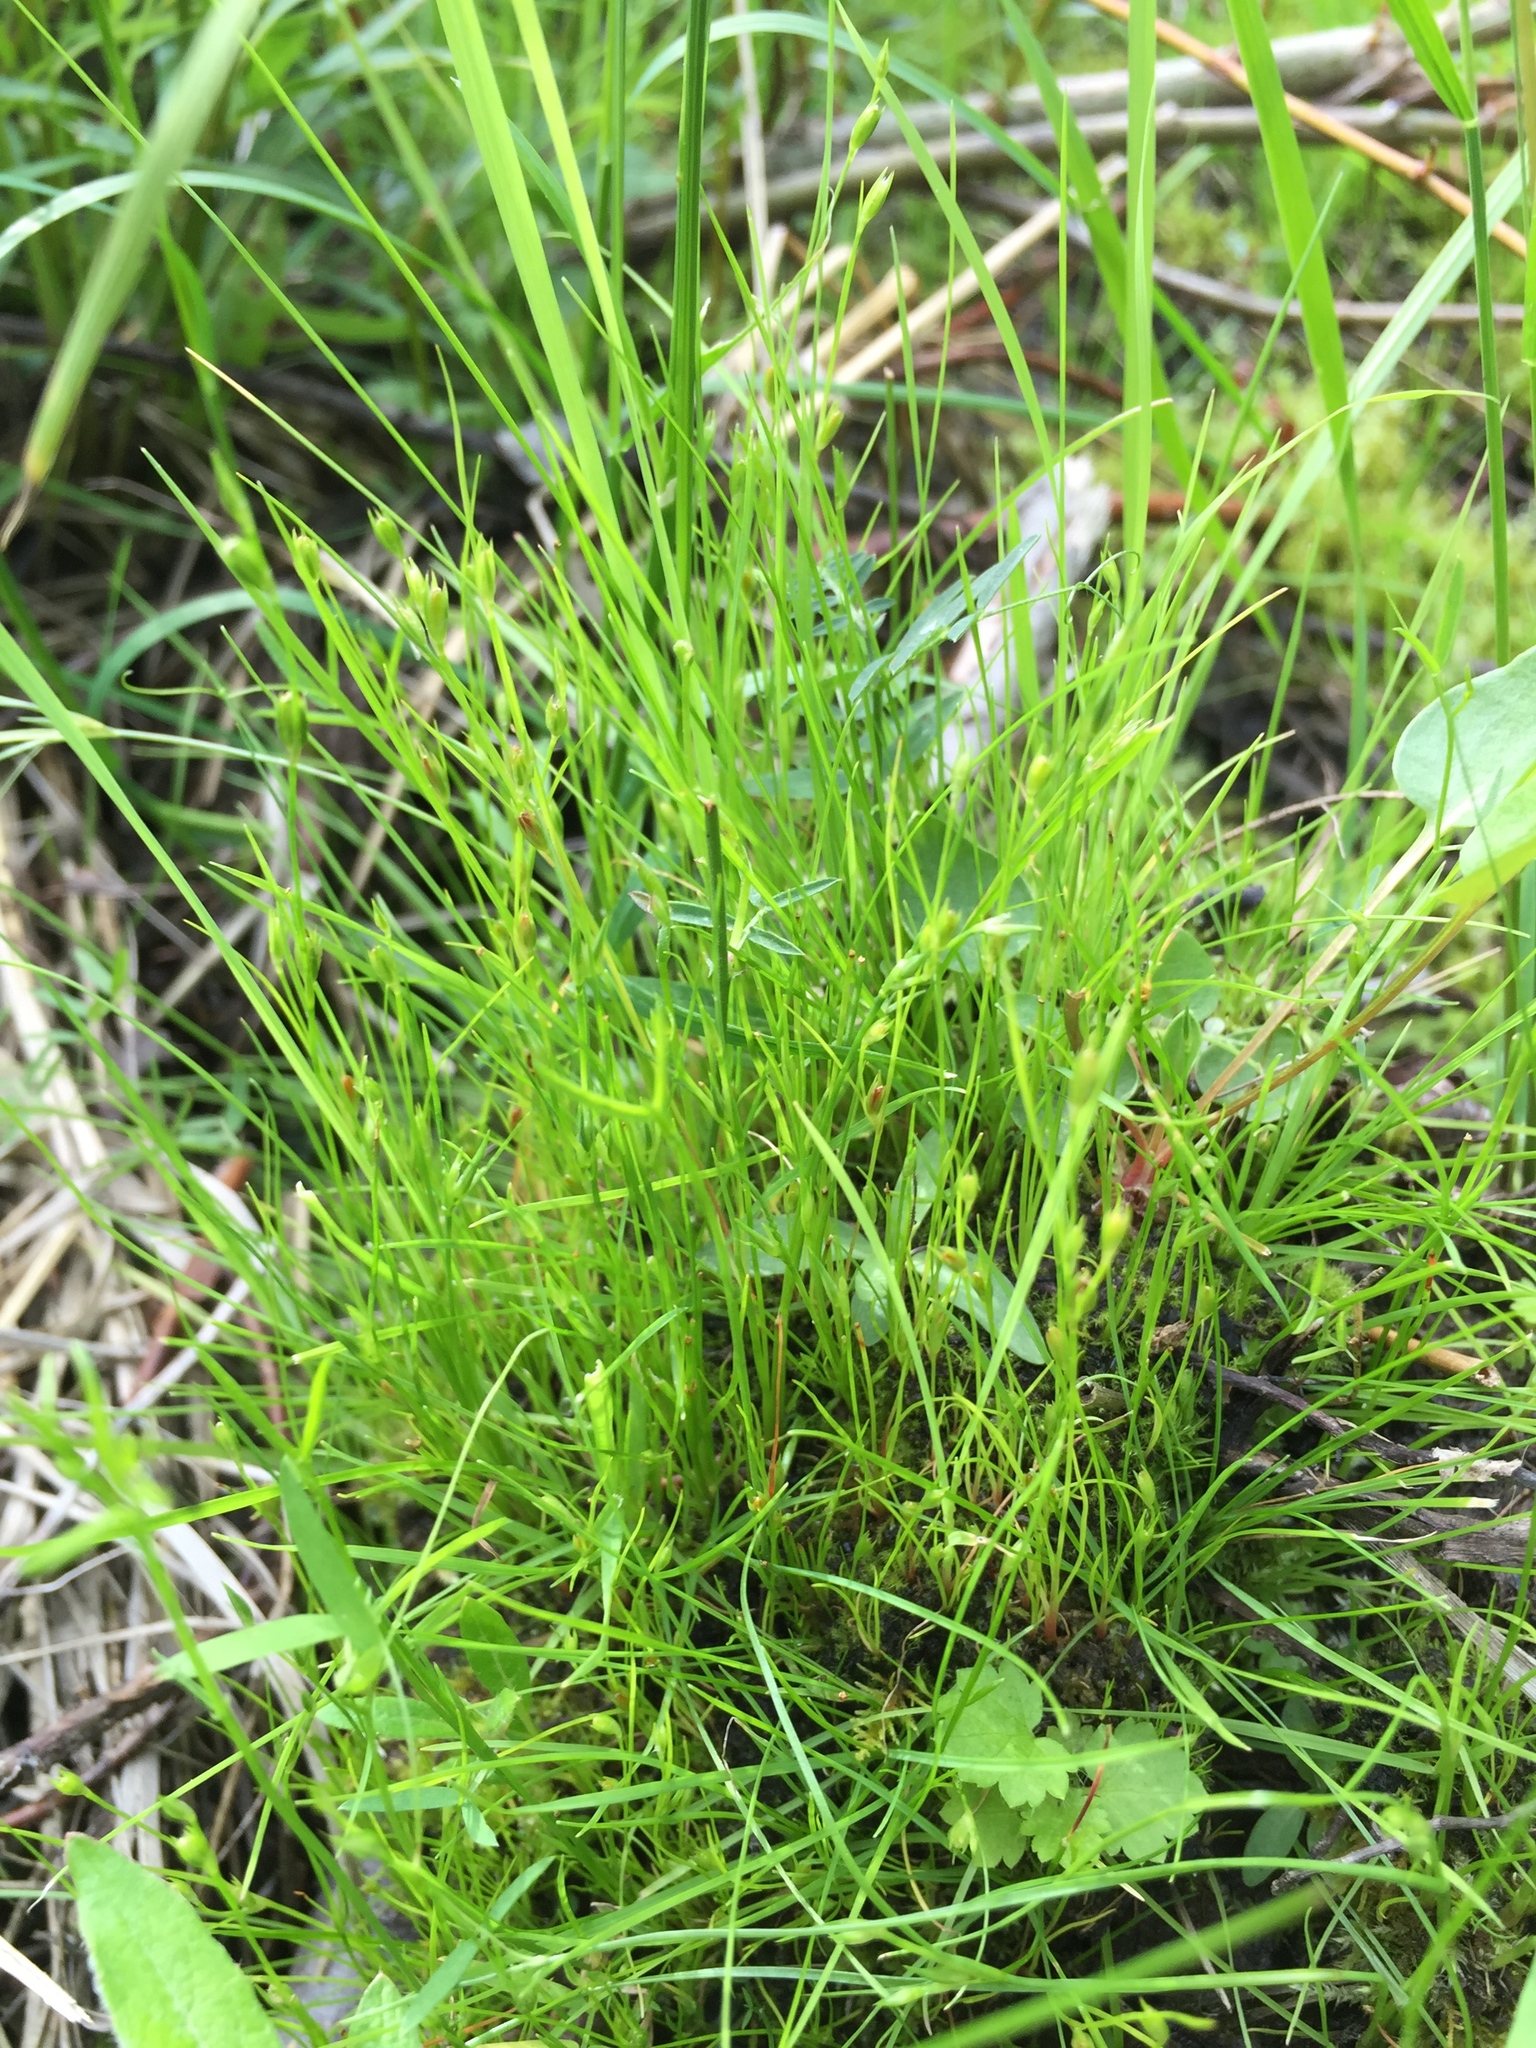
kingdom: Plantae
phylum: Tracheophyta
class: Liliopsida
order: Poales
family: Juncaceae
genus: Juncus
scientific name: Juncus bufonius
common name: Toad rush
